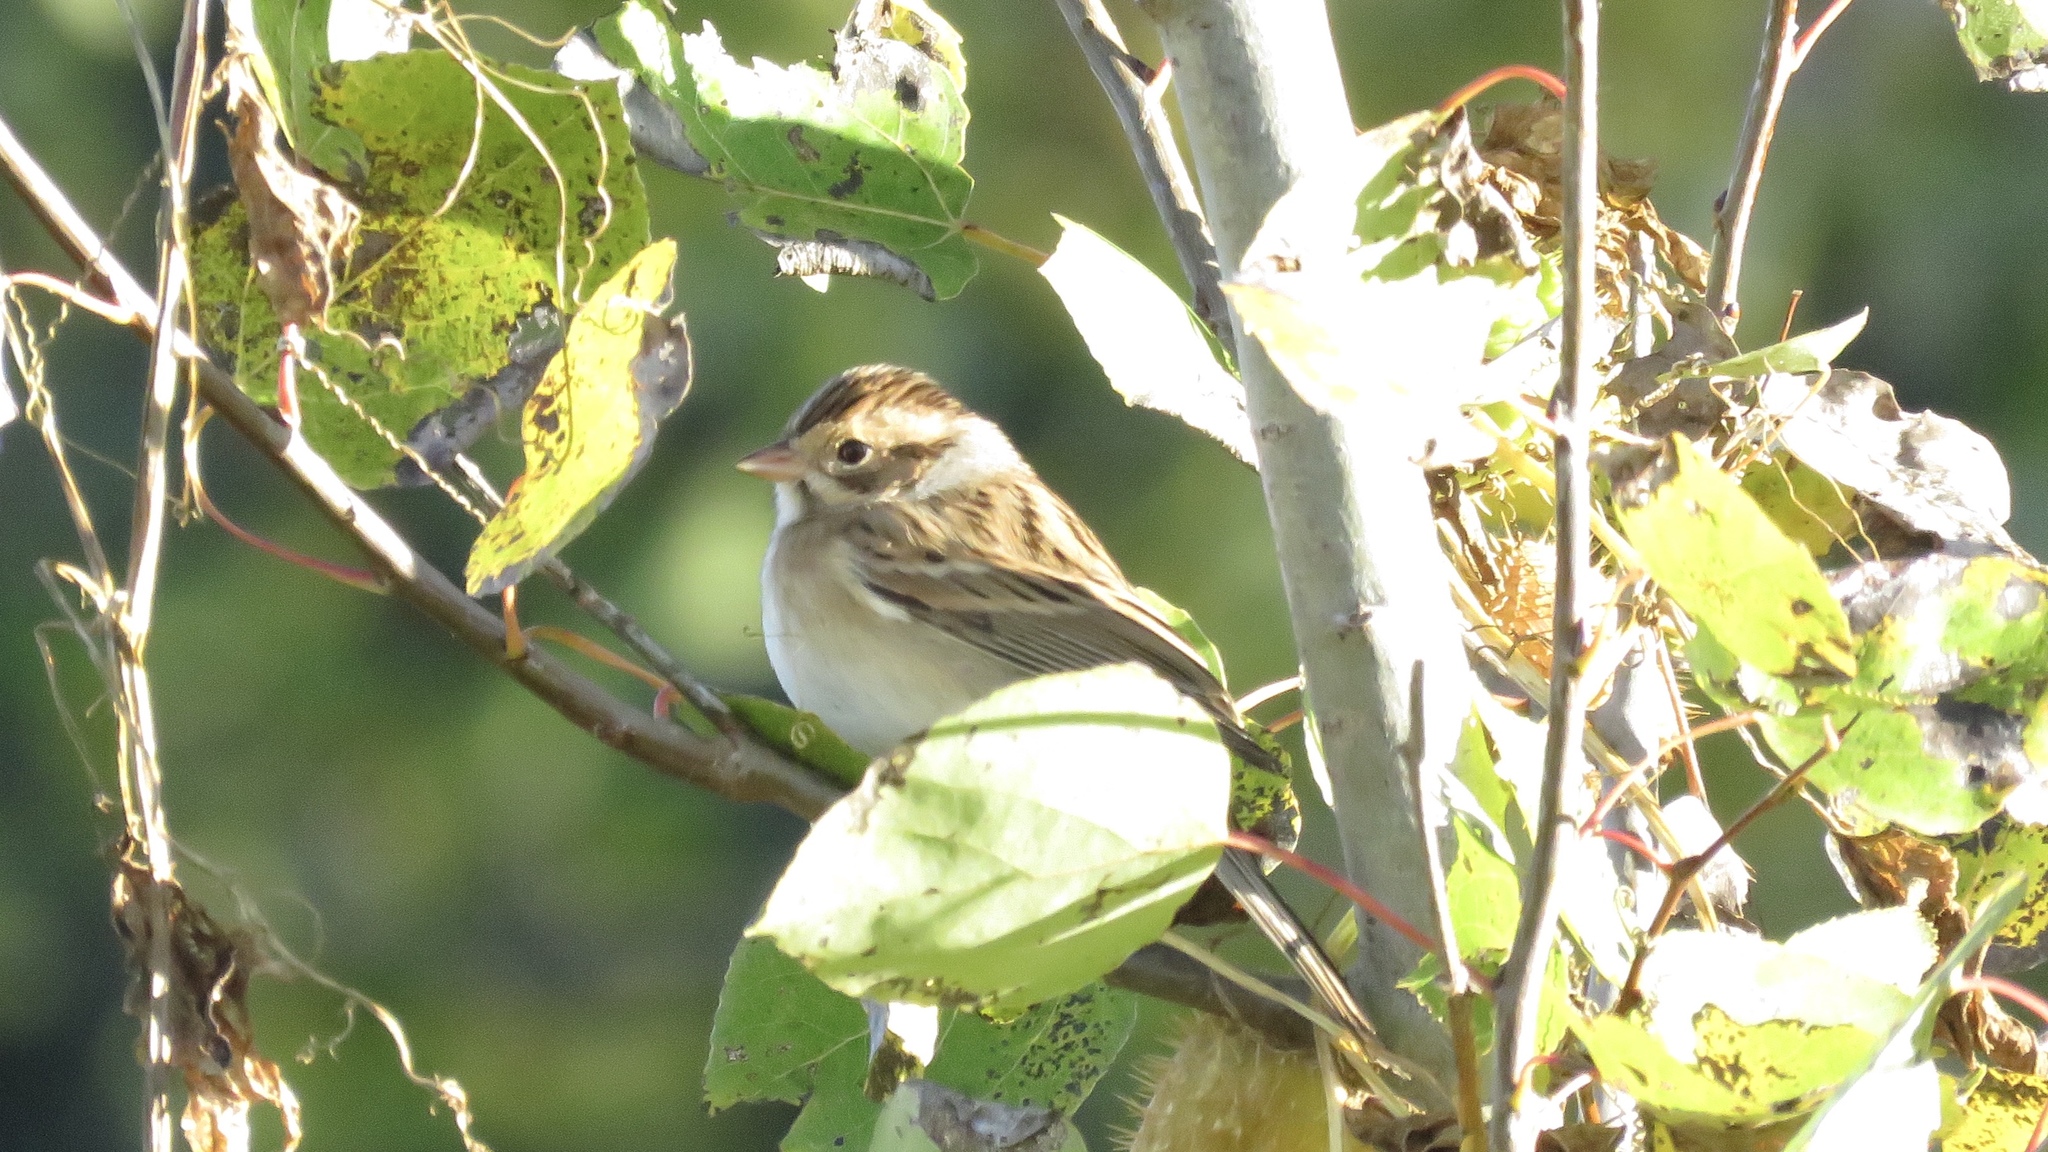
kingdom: Animalia
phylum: Chordata
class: Aves
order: Passeriformes
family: Passerellidae
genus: Spizella
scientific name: Spizella pallida
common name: Clay-colored sparrow
